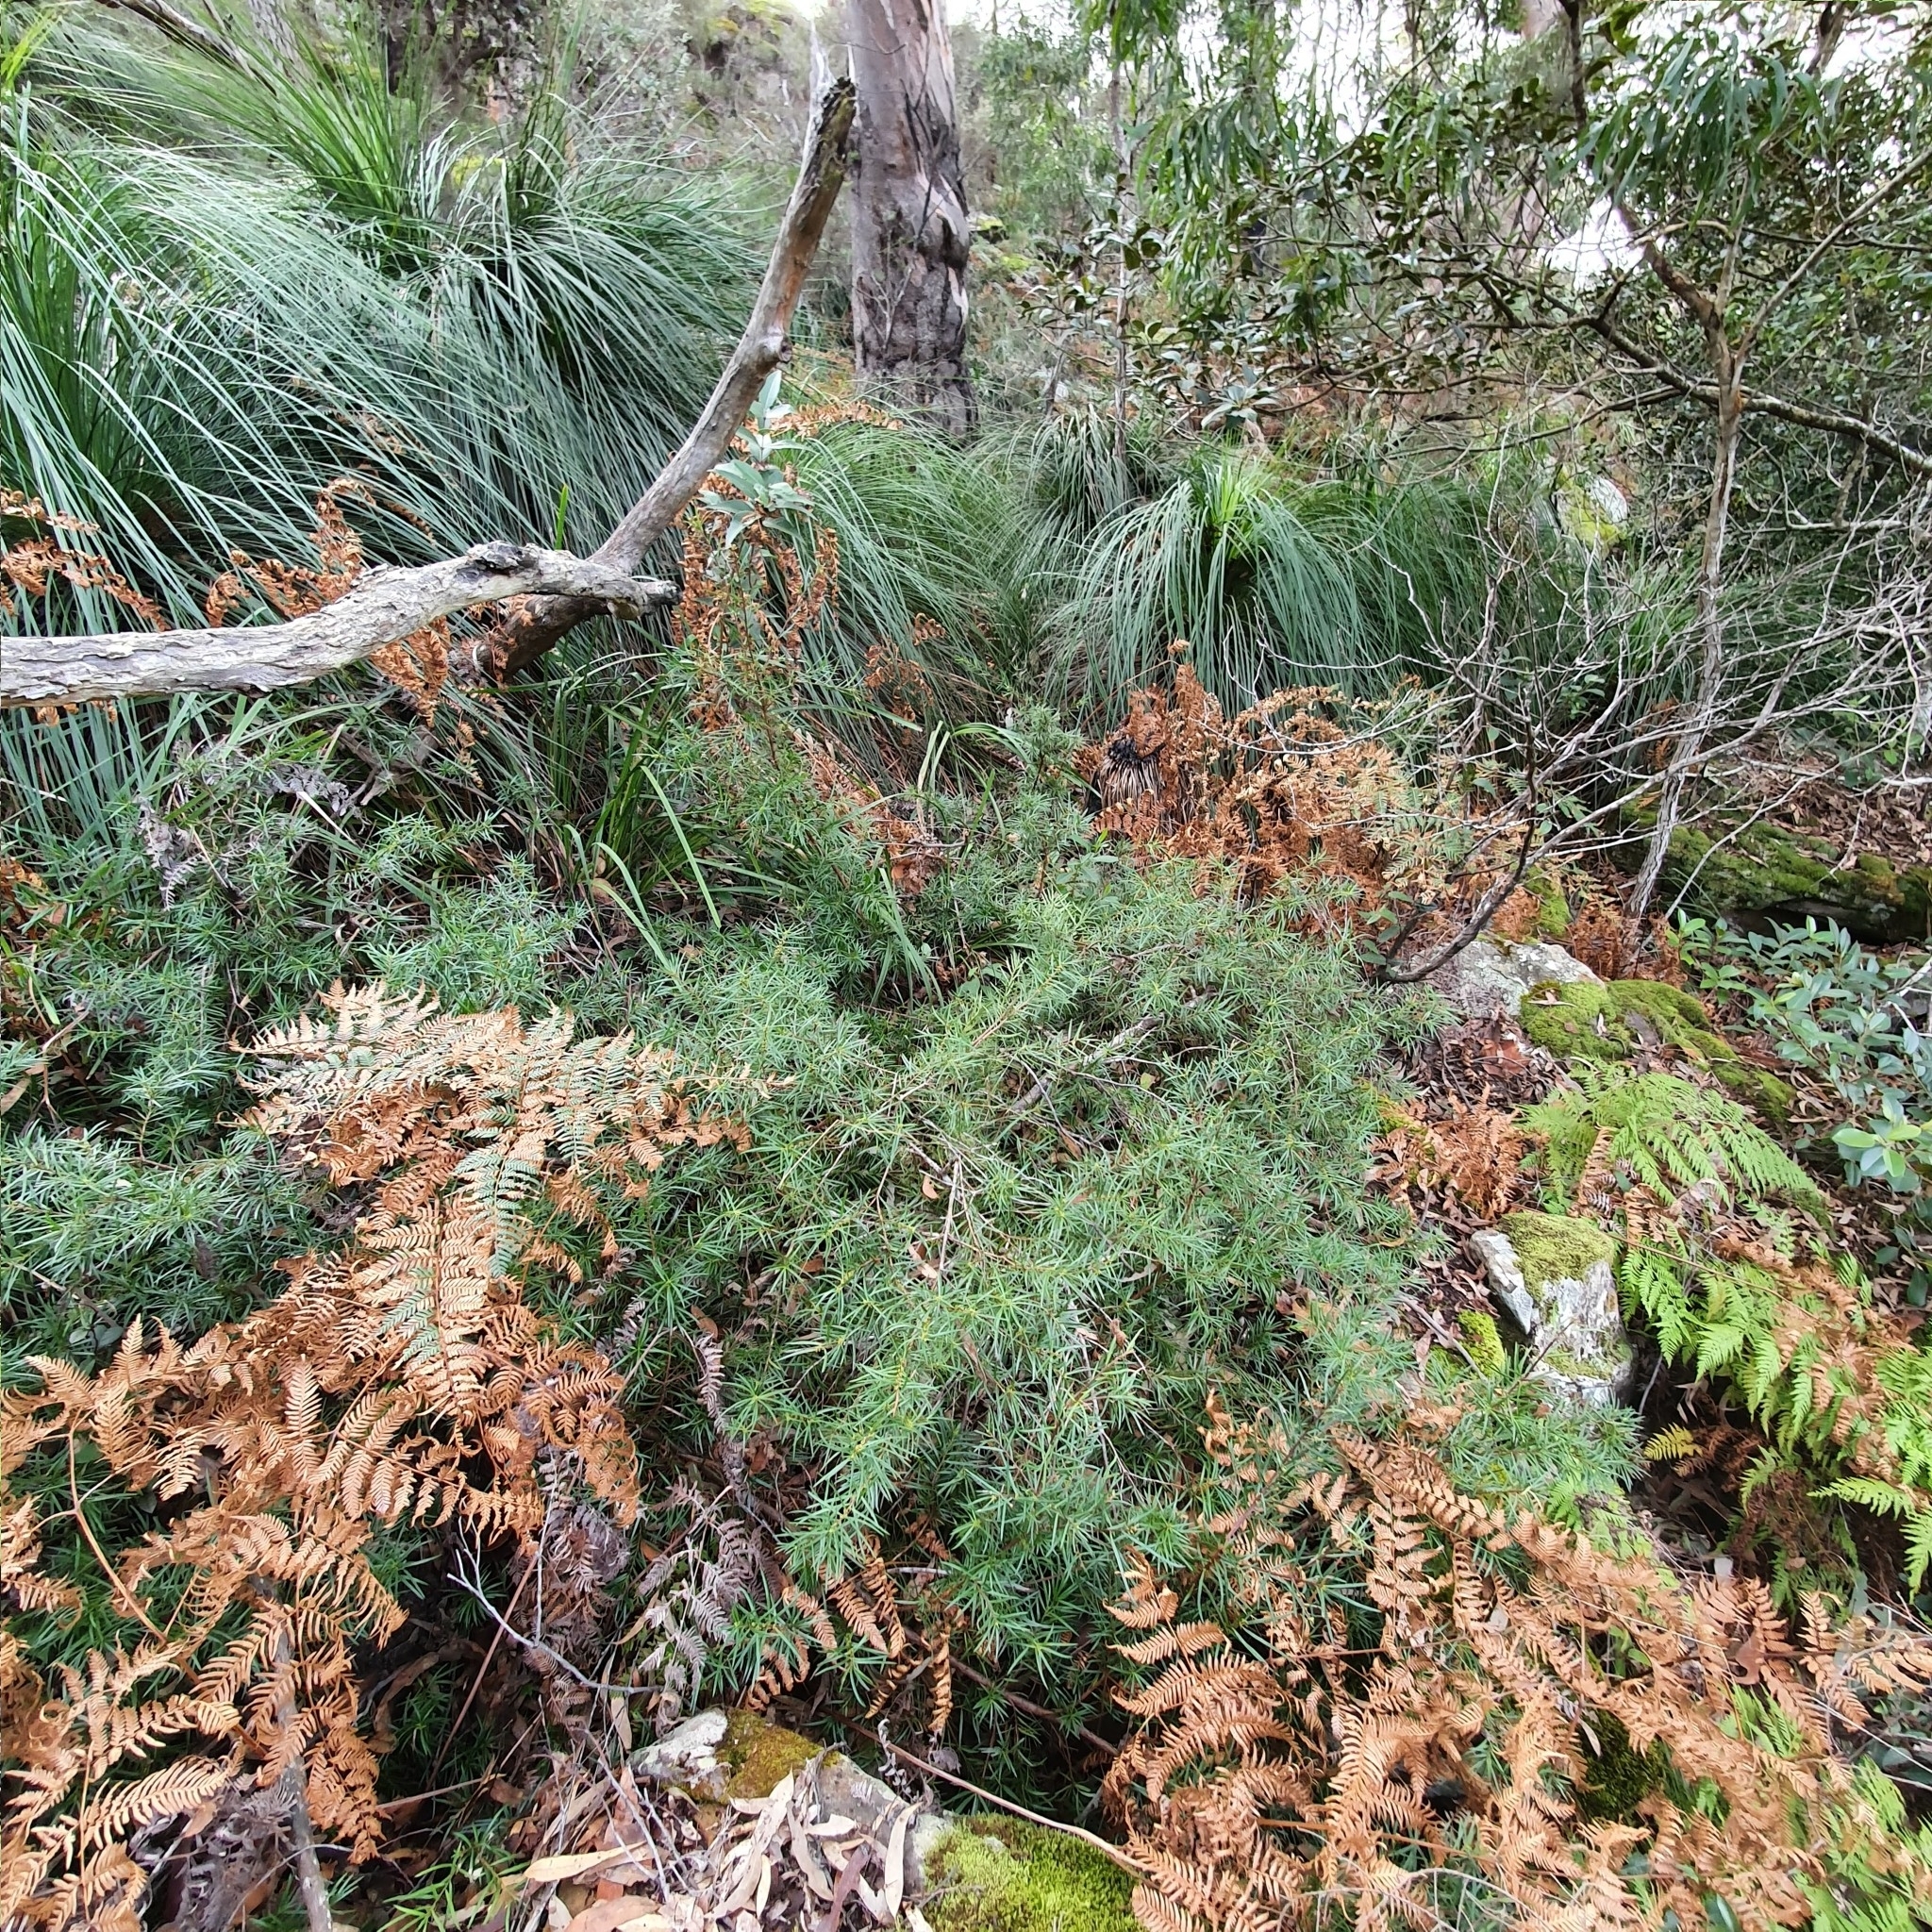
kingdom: Plantae
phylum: Tracheophyta
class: Pinopsida
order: Pinales
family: Podocarpaceae
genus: Podocarpus
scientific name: Podocarpus spinulosus
